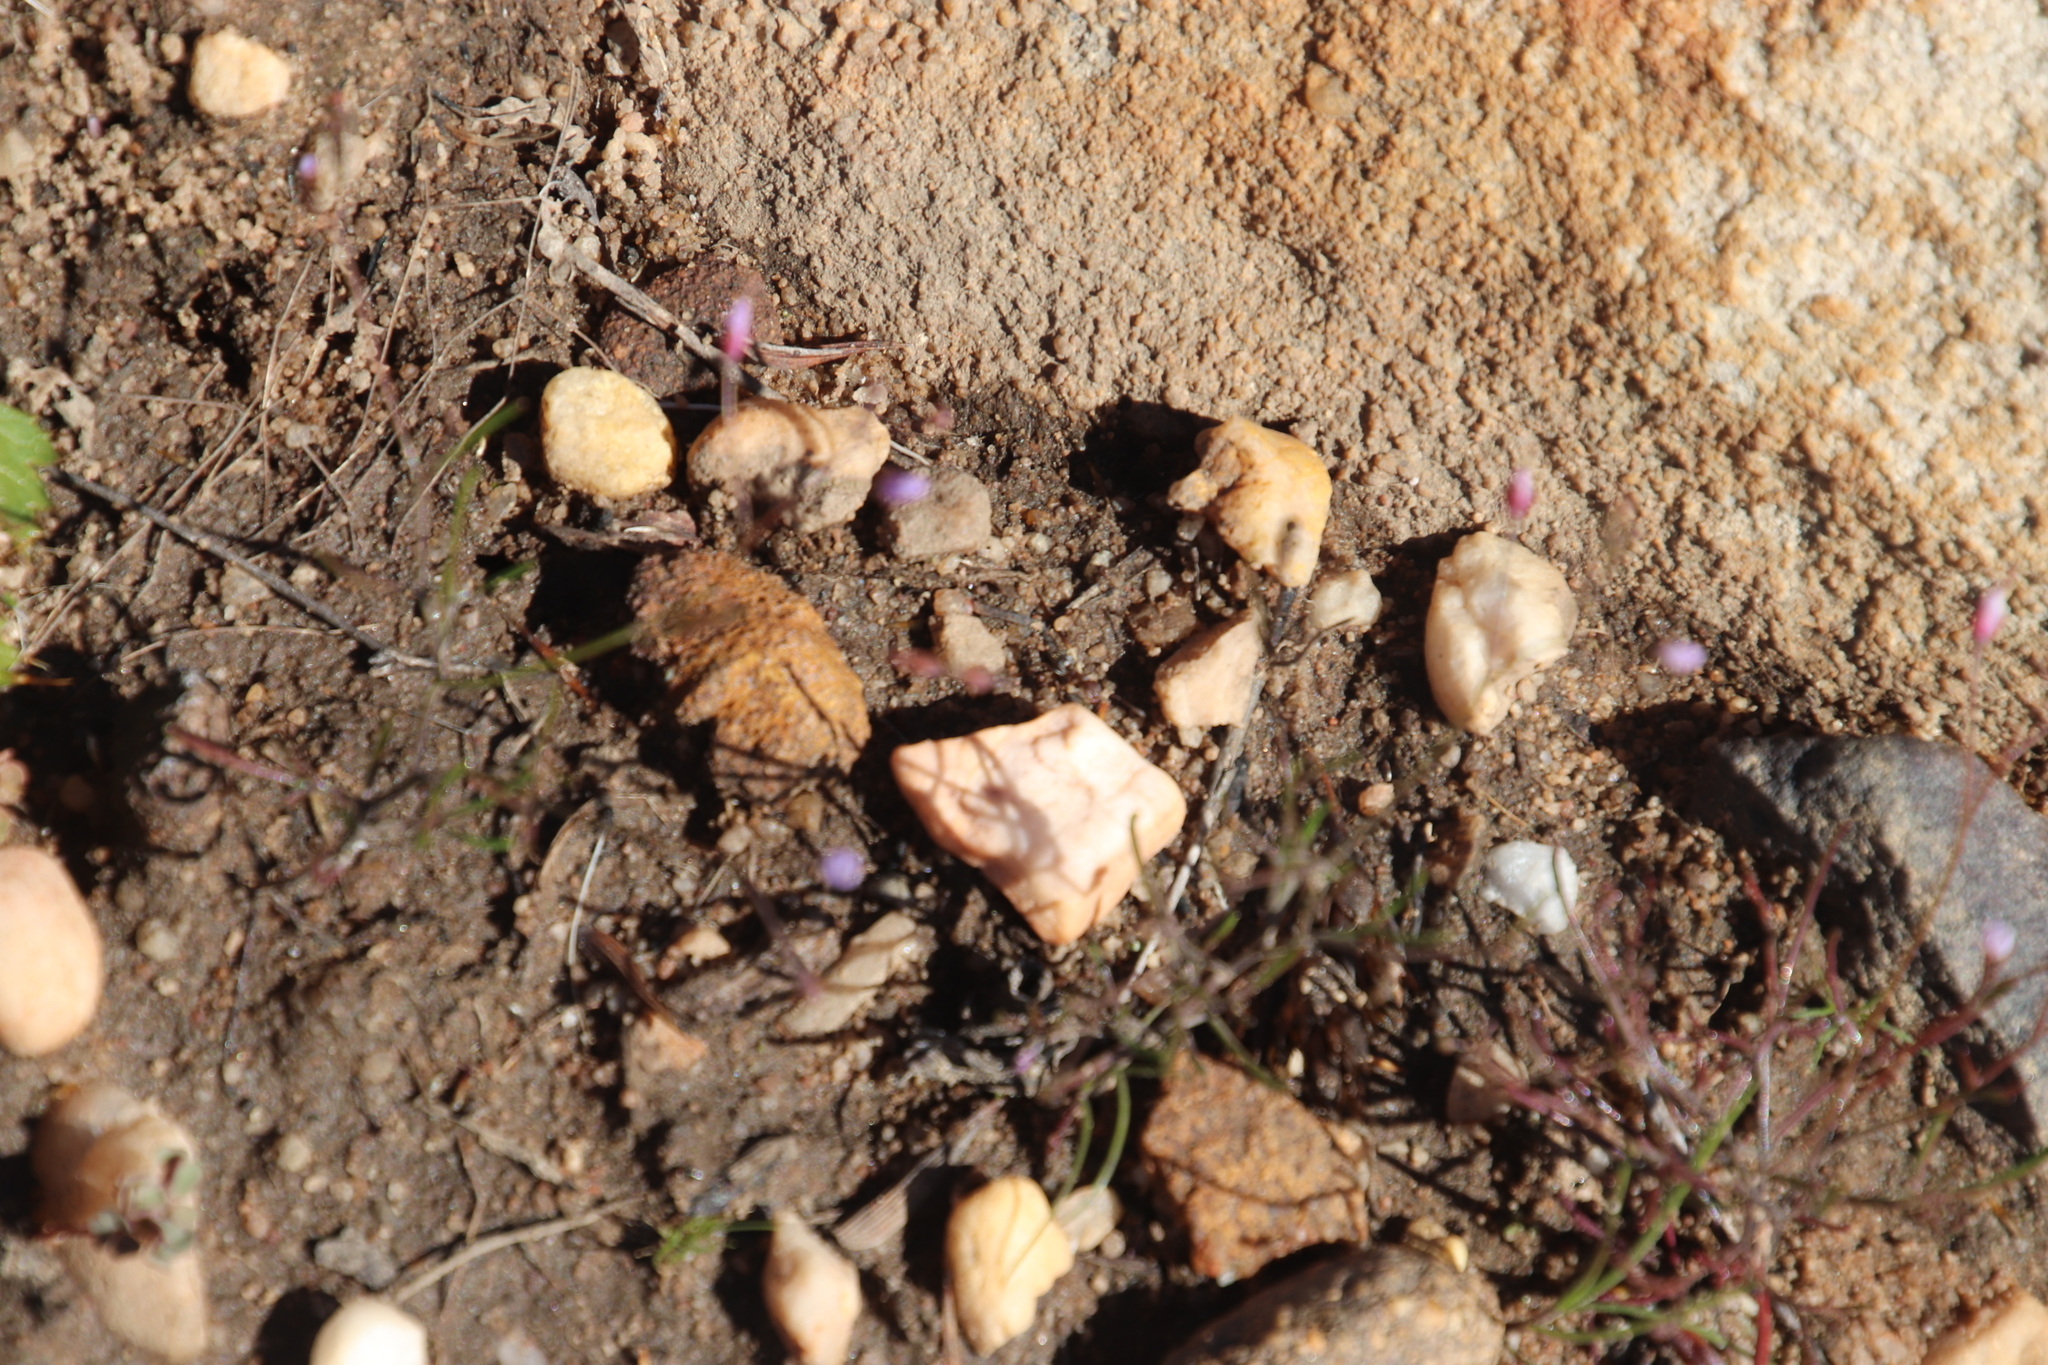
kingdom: Plantae
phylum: Tracheophyta
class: Magnoliopsida
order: Brassicales
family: Brassicaceae
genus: Heliophila
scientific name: Heliophila pinnata
